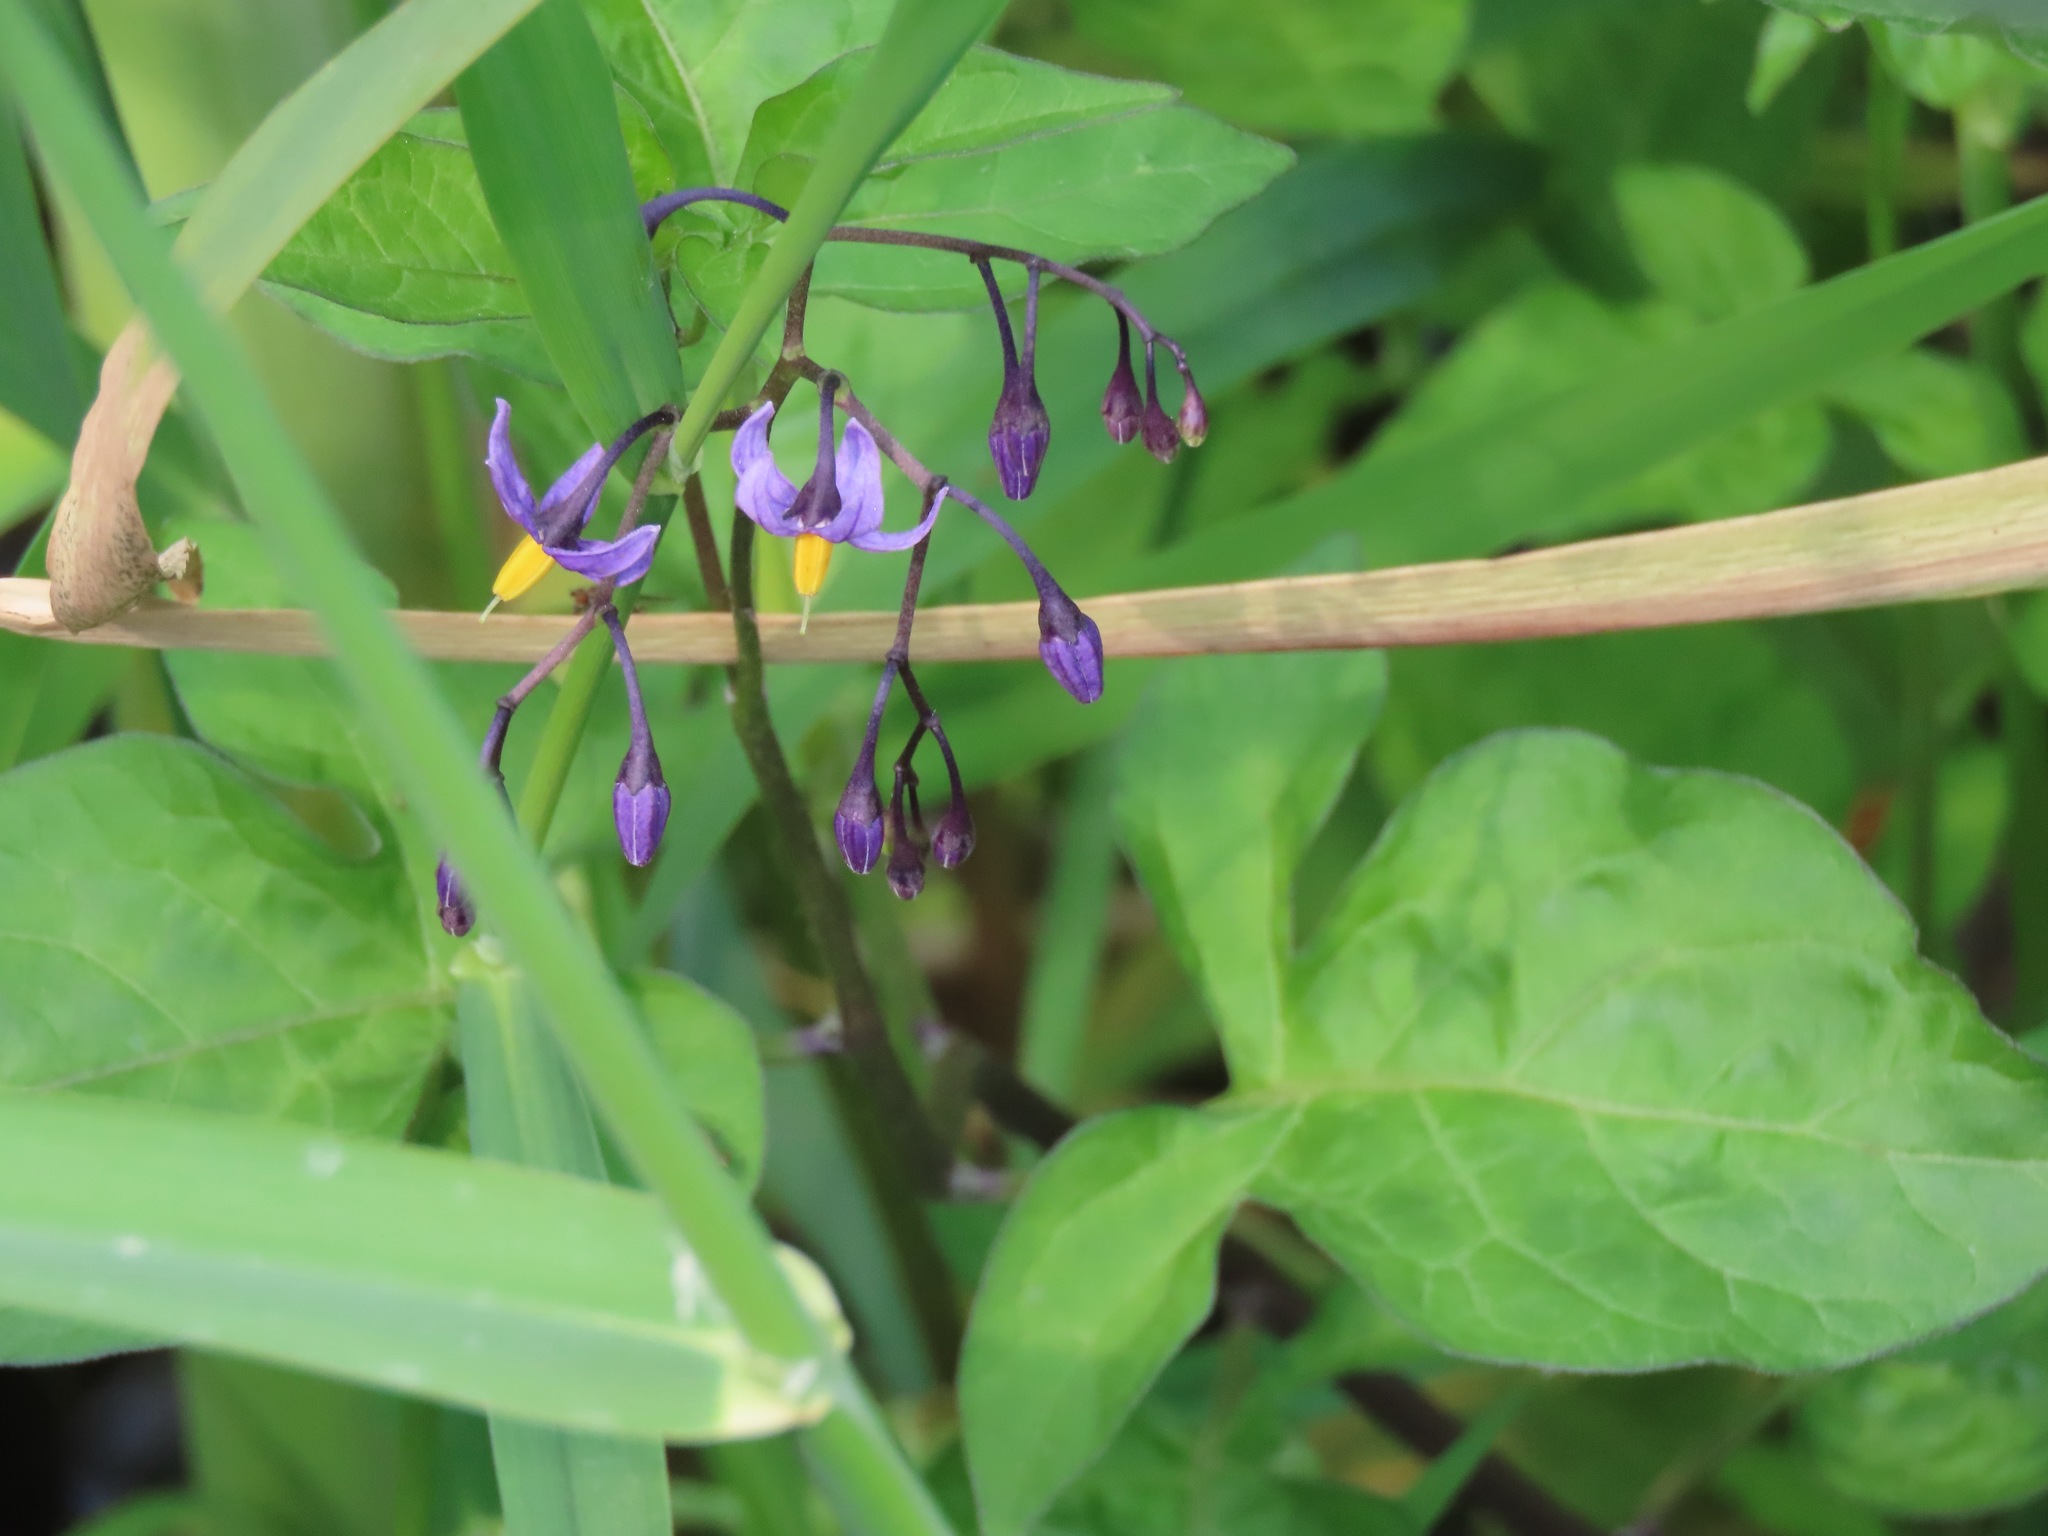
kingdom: Plantae
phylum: Tracheophyta
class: Magnoliopsida
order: Solanales
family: Solanaceae
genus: Solanum
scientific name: Solanum dulcamara
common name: Climbing nightshade
